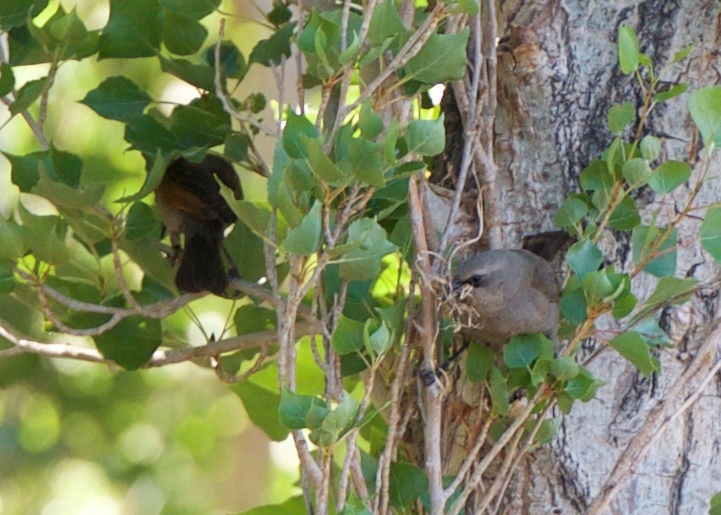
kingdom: Animalia
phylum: Chordata
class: Aves
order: Passeriformes
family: Icteridae
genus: Agelaioides
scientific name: Agelaioides badius
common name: Baywing
